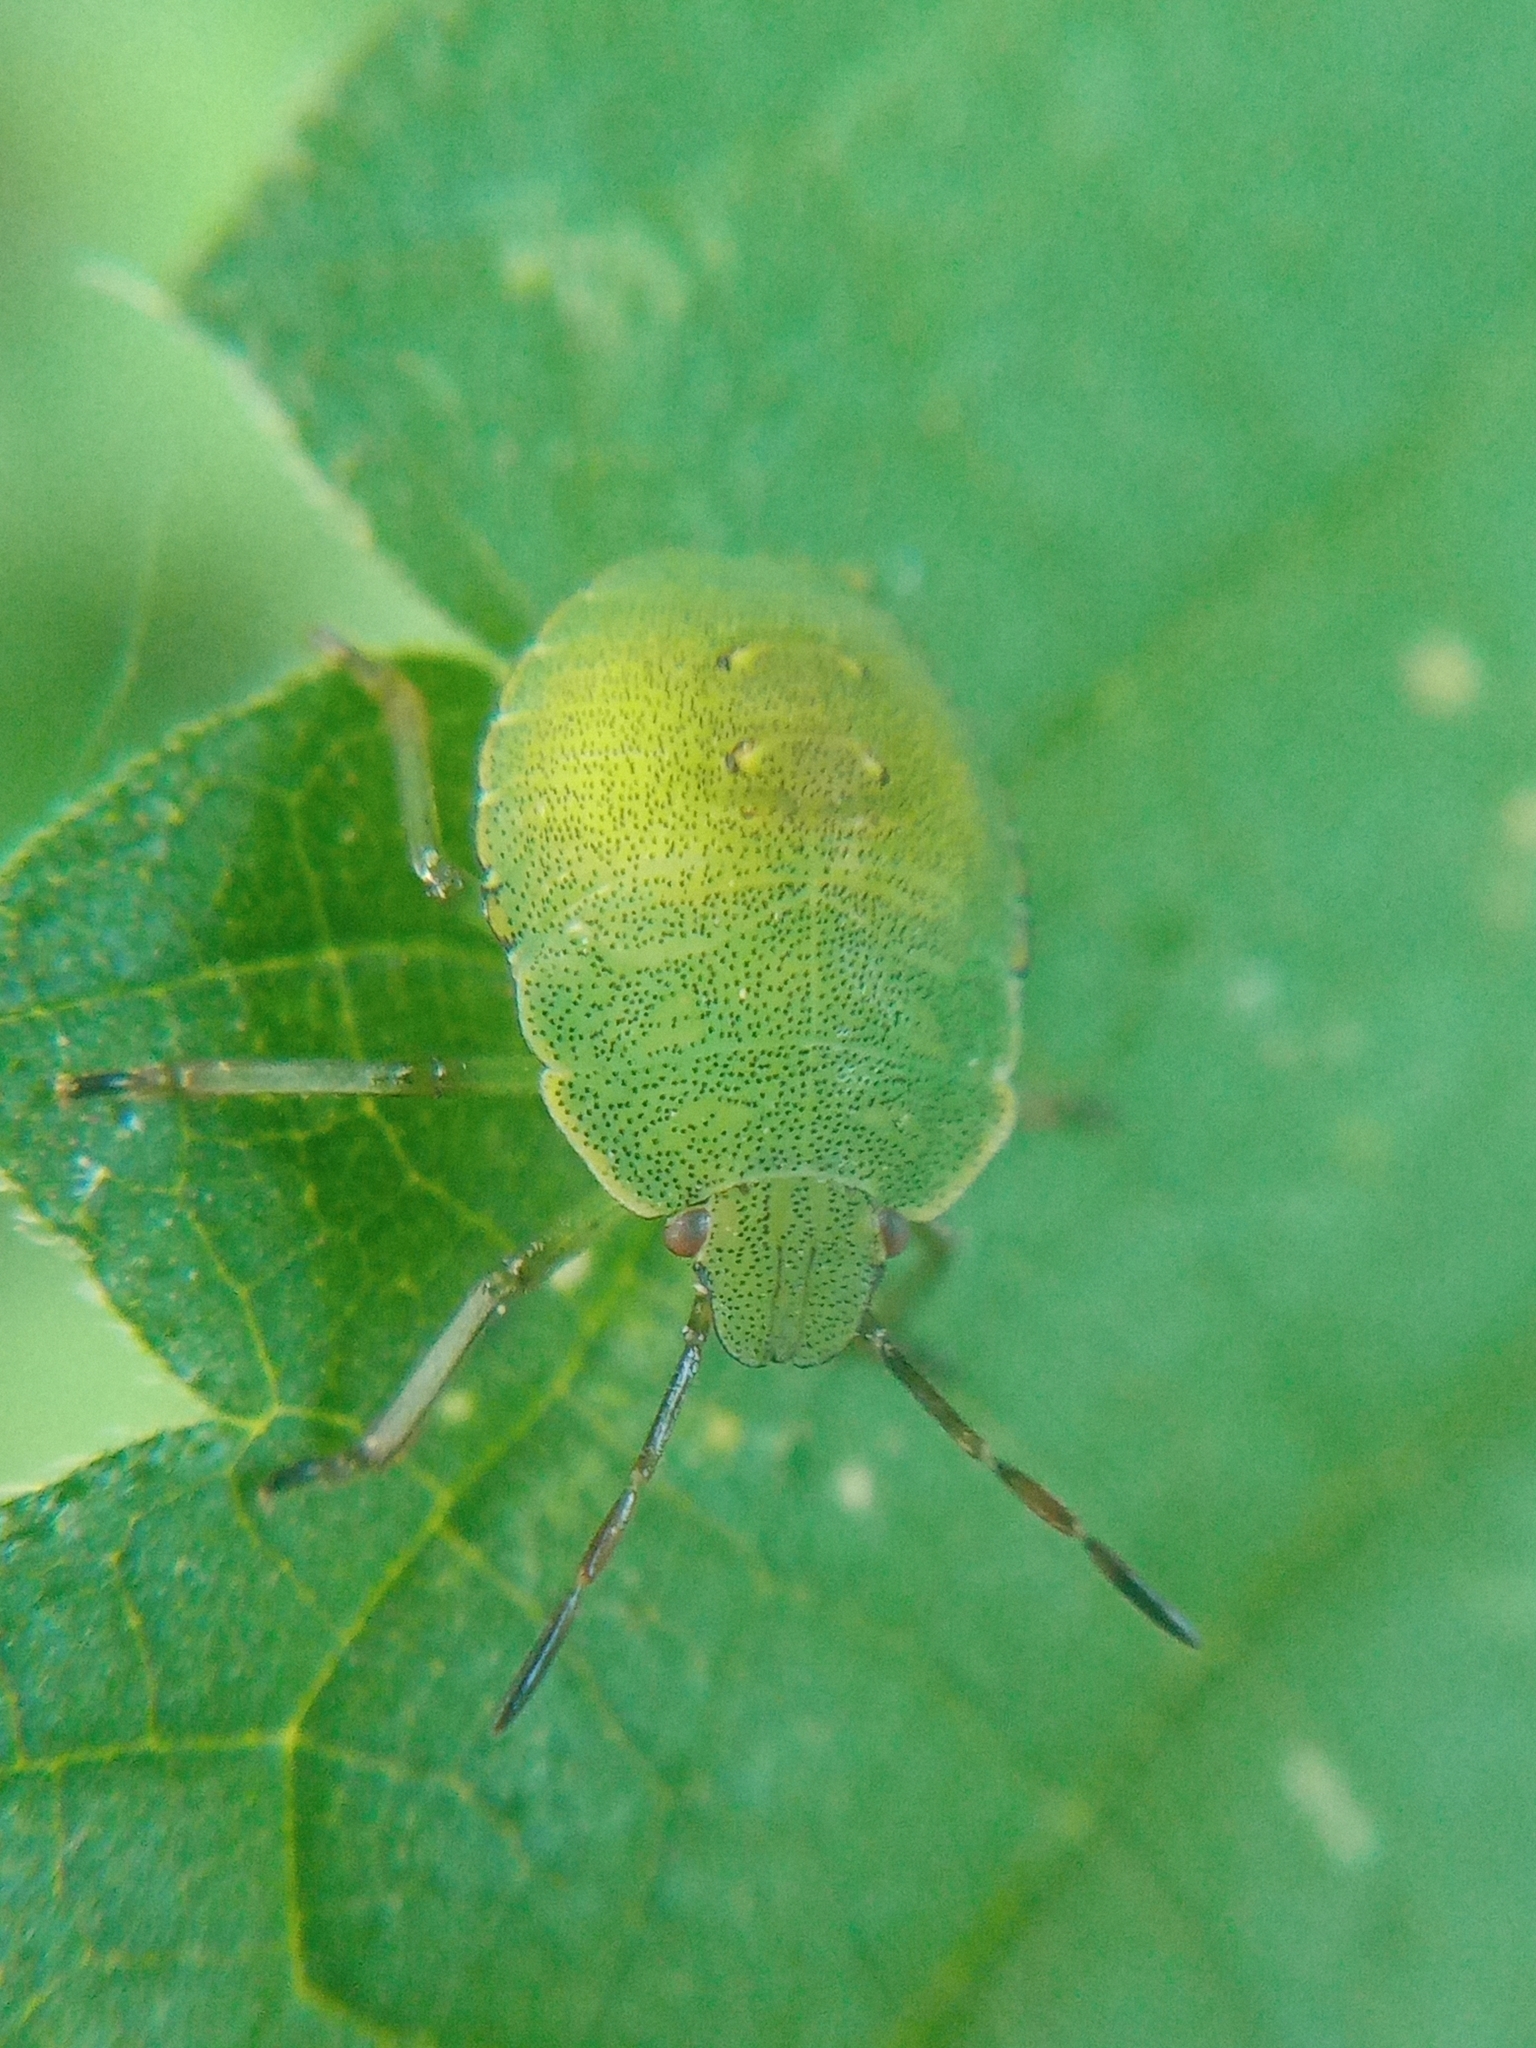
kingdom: Animalia
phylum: Arthropoda
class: Insecta
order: Hemiptera
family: Pentatomidae
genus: Palomena
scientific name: Palomena prasina
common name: Green shieldbug
